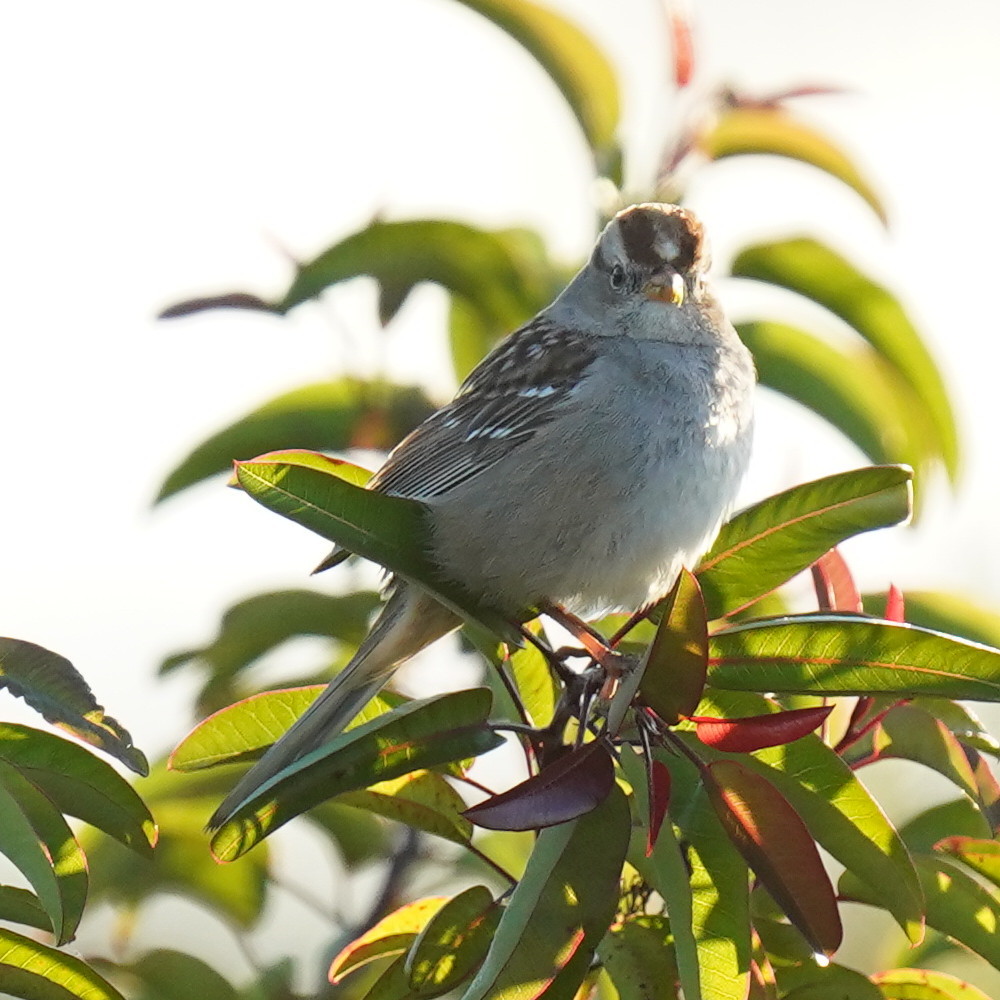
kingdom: Animalia
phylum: Chordata
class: Aves
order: Passeriformes
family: Passerellidae
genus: Zonotrichia
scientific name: Zonotrichia leucophrys
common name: White-crowned sparrow
